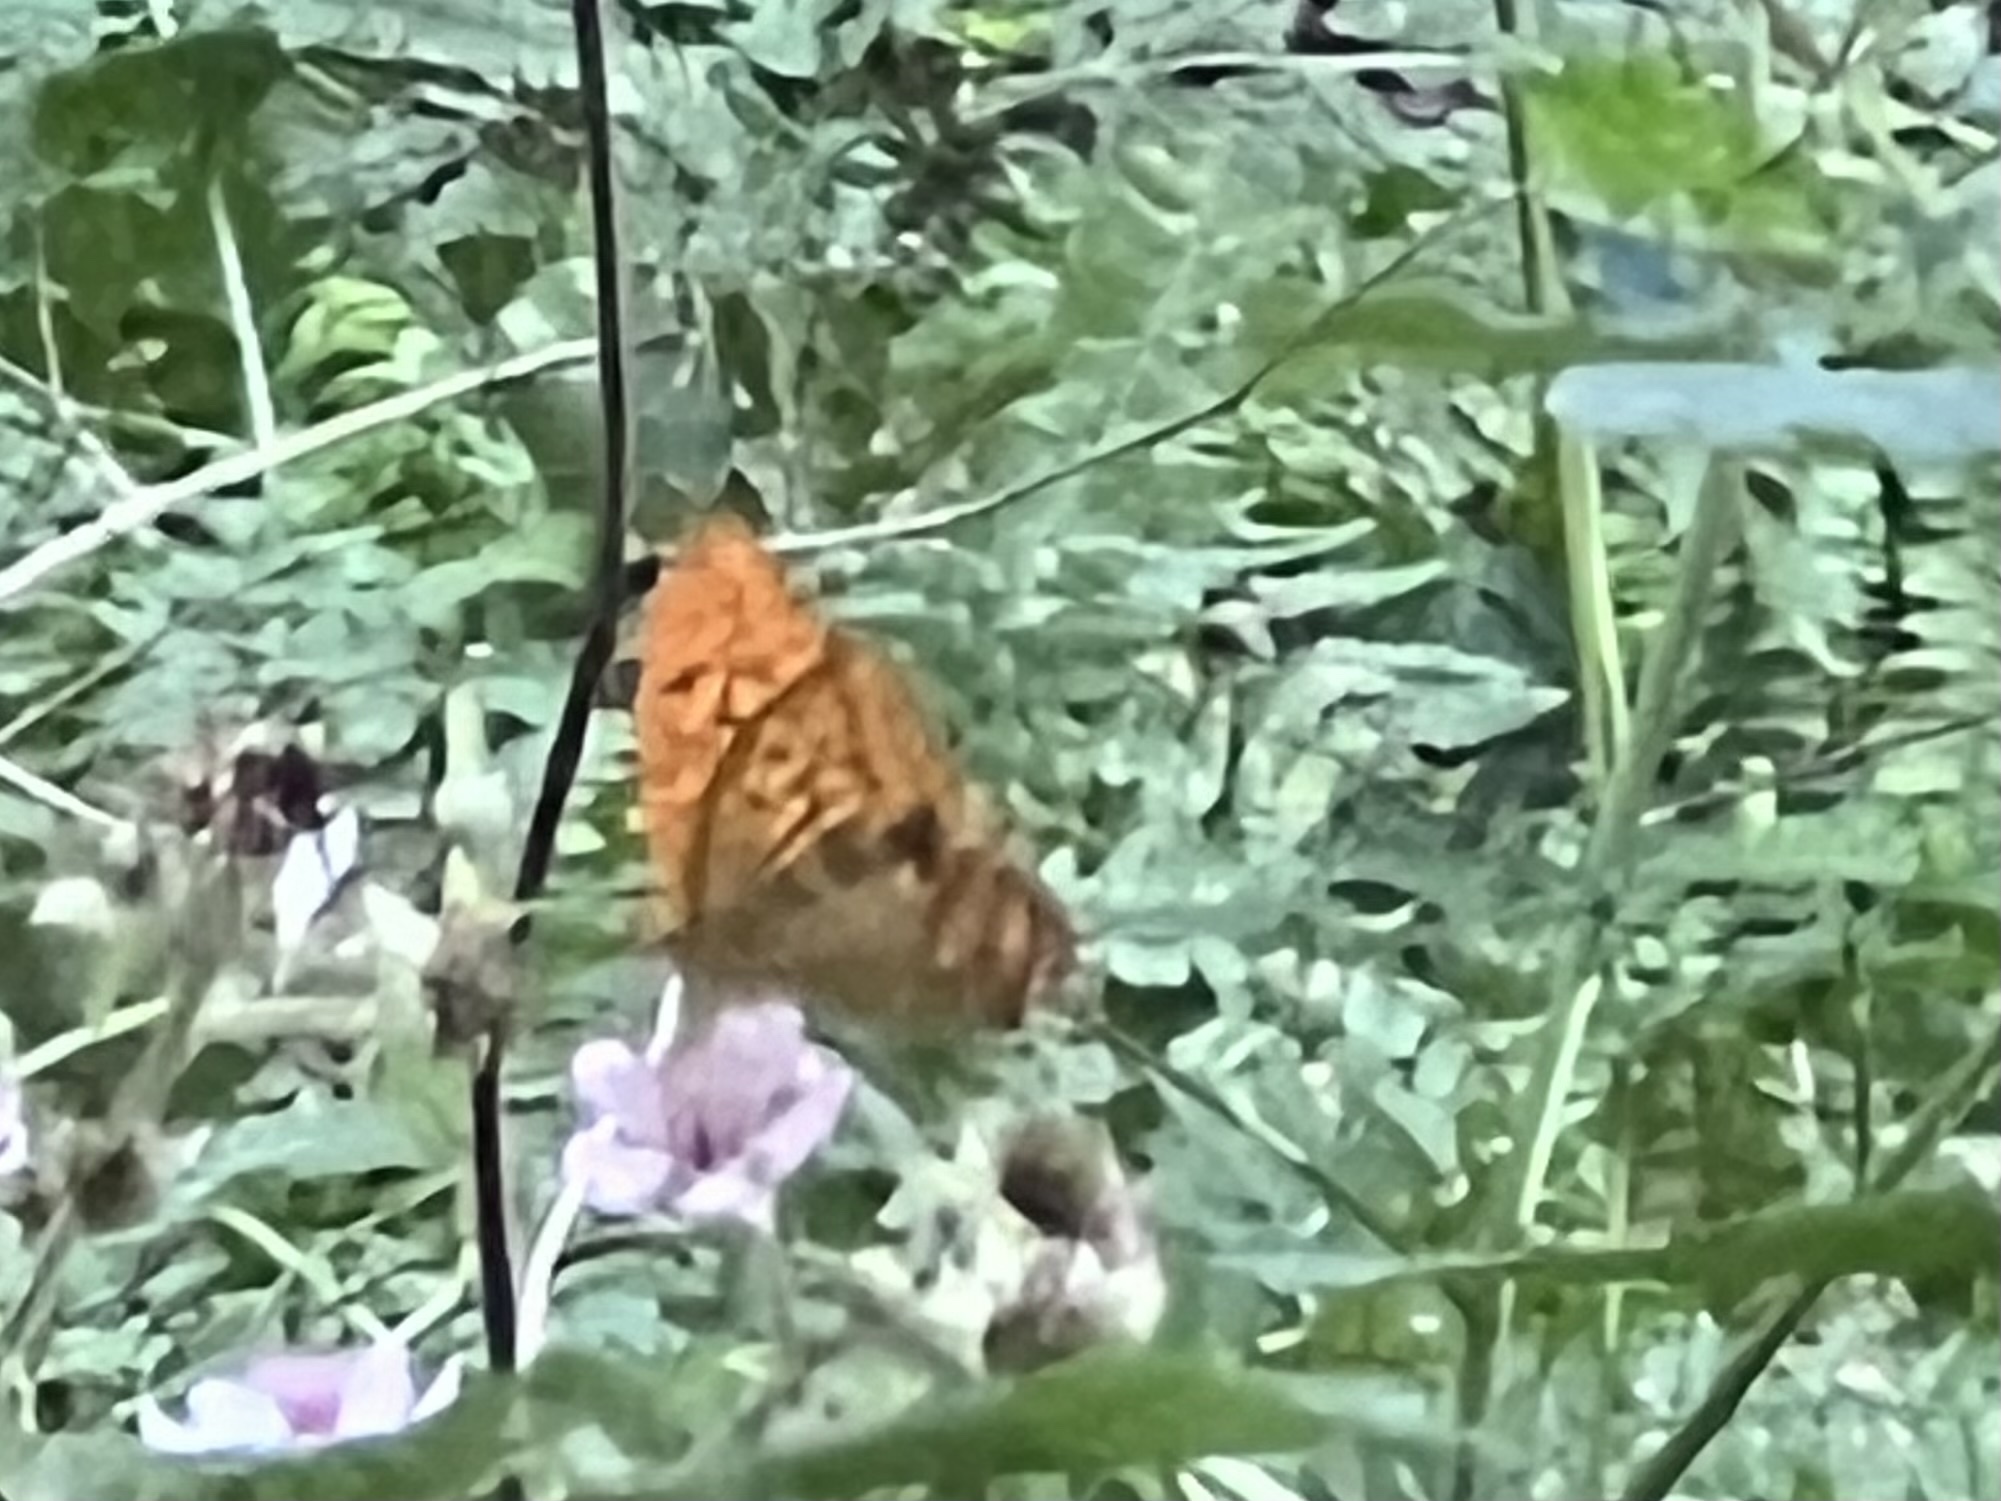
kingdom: Animalia
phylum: Arthropoda
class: Insecta
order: Lepidoptera
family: Nymphalidae
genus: Argynnis
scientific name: Argynnis paphia
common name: Silver-washed fritillary
